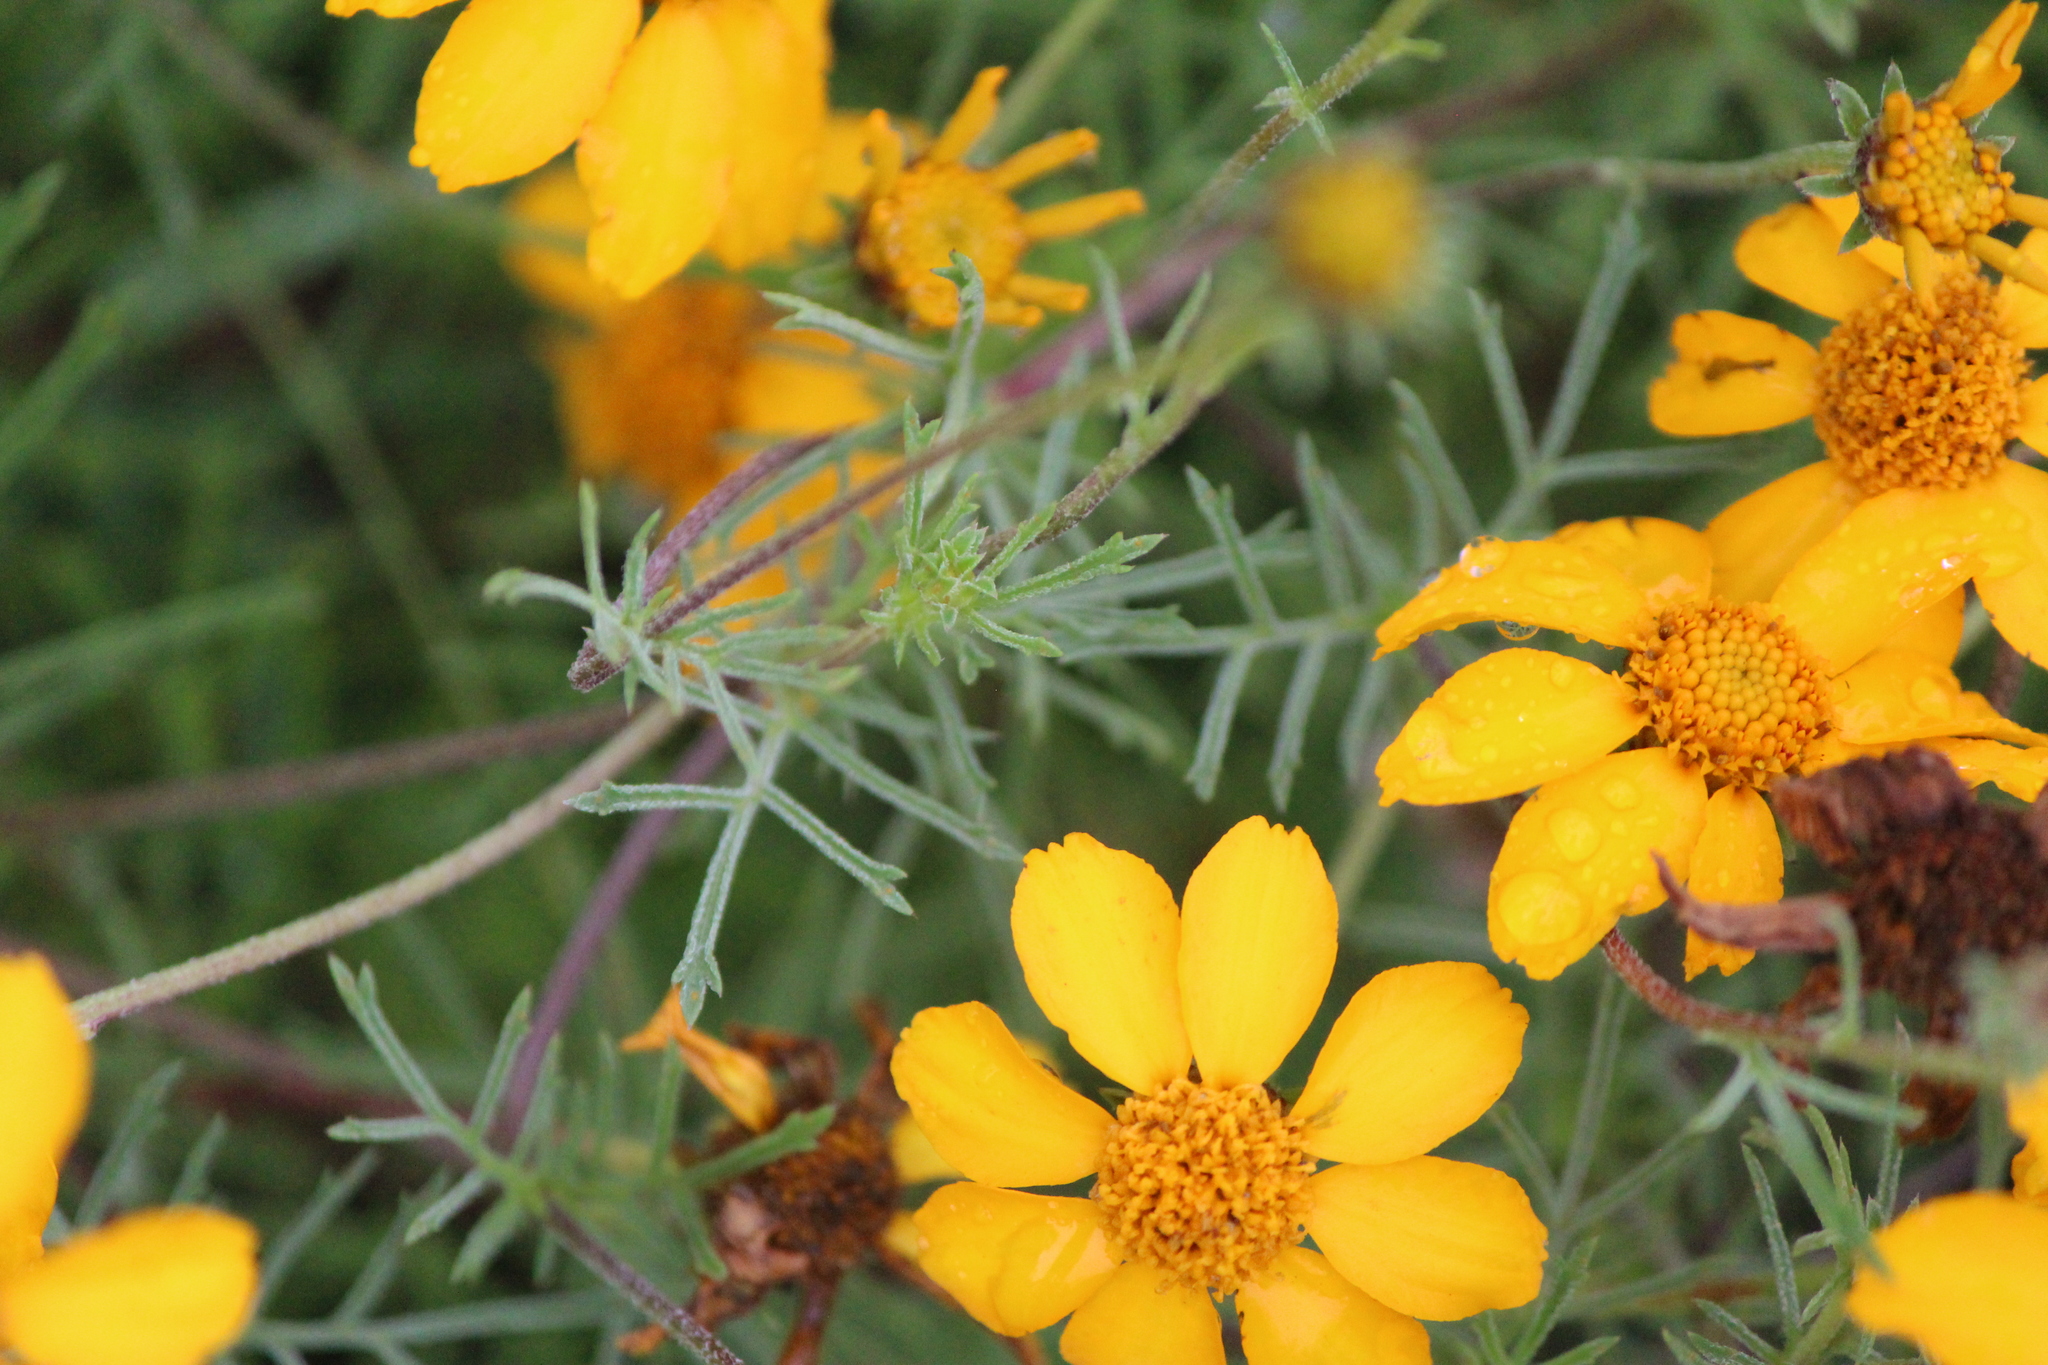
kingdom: Plantae
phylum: Tracheophyta
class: Magnoliopsida
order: Asterales
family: Asteraceae
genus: Dyssodia
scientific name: Dyssodia pinnata
